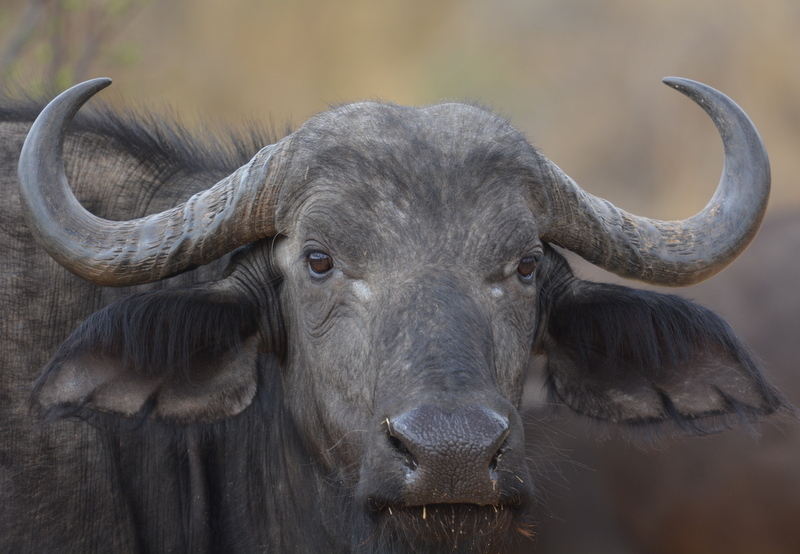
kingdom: Animalia
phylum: Chordata
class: Mammalia
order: Artiodactyla
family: Bovidae
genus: Syncerus
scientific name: Syncerus caffer
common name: African buffalo
